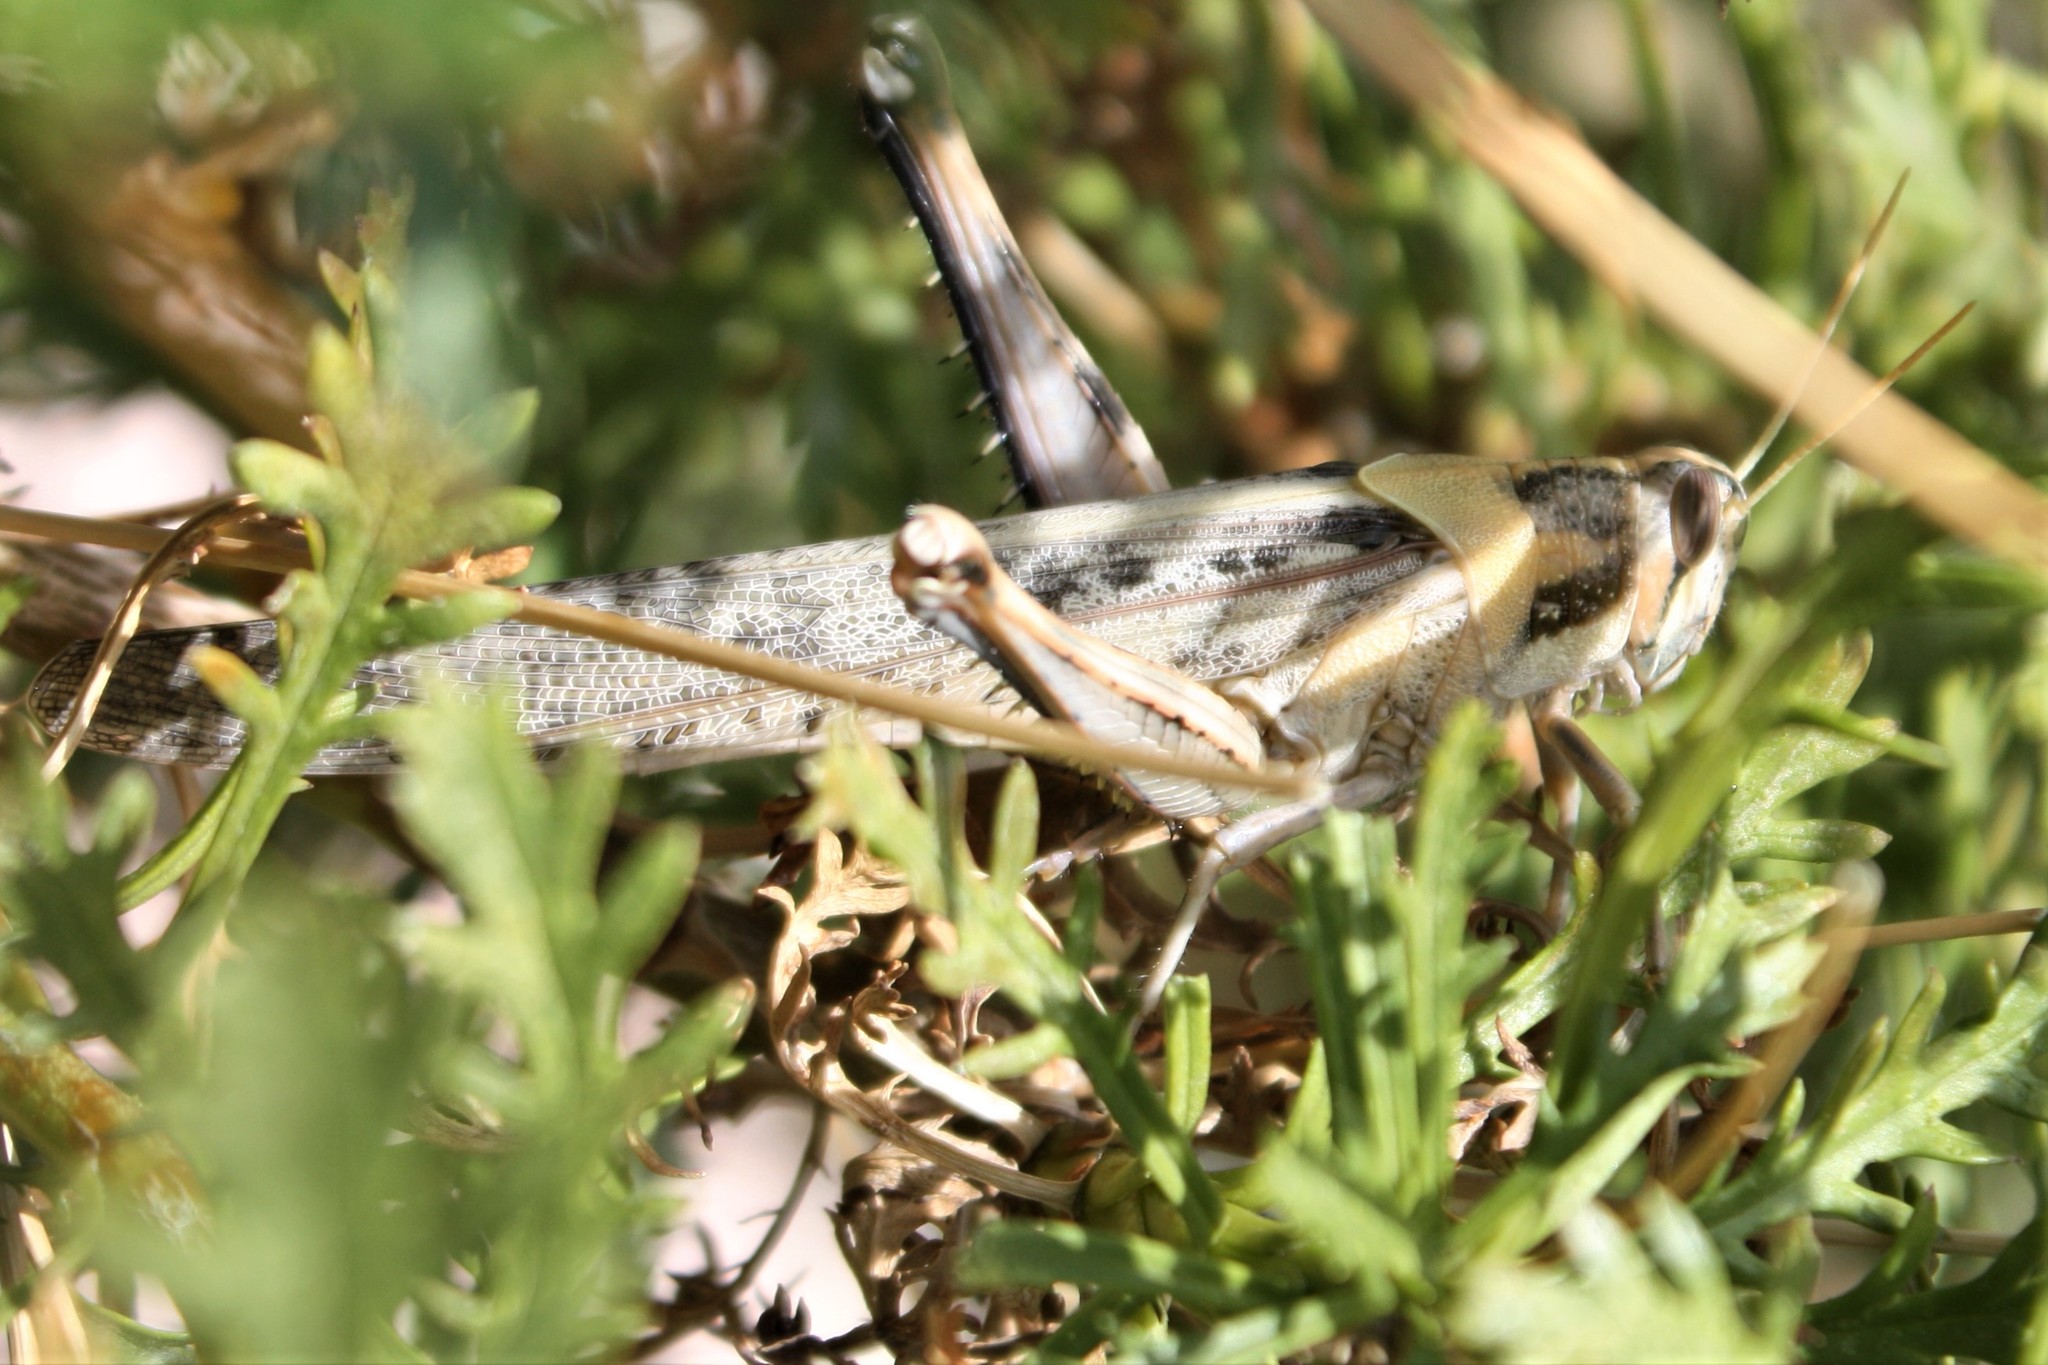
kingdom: Animalia
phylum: Arthropoda
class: Insecta
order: Orthoptera
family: Acrididae
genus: Schistocerca
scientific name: Schistocerca nitens
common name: Vagrant grasshopper
